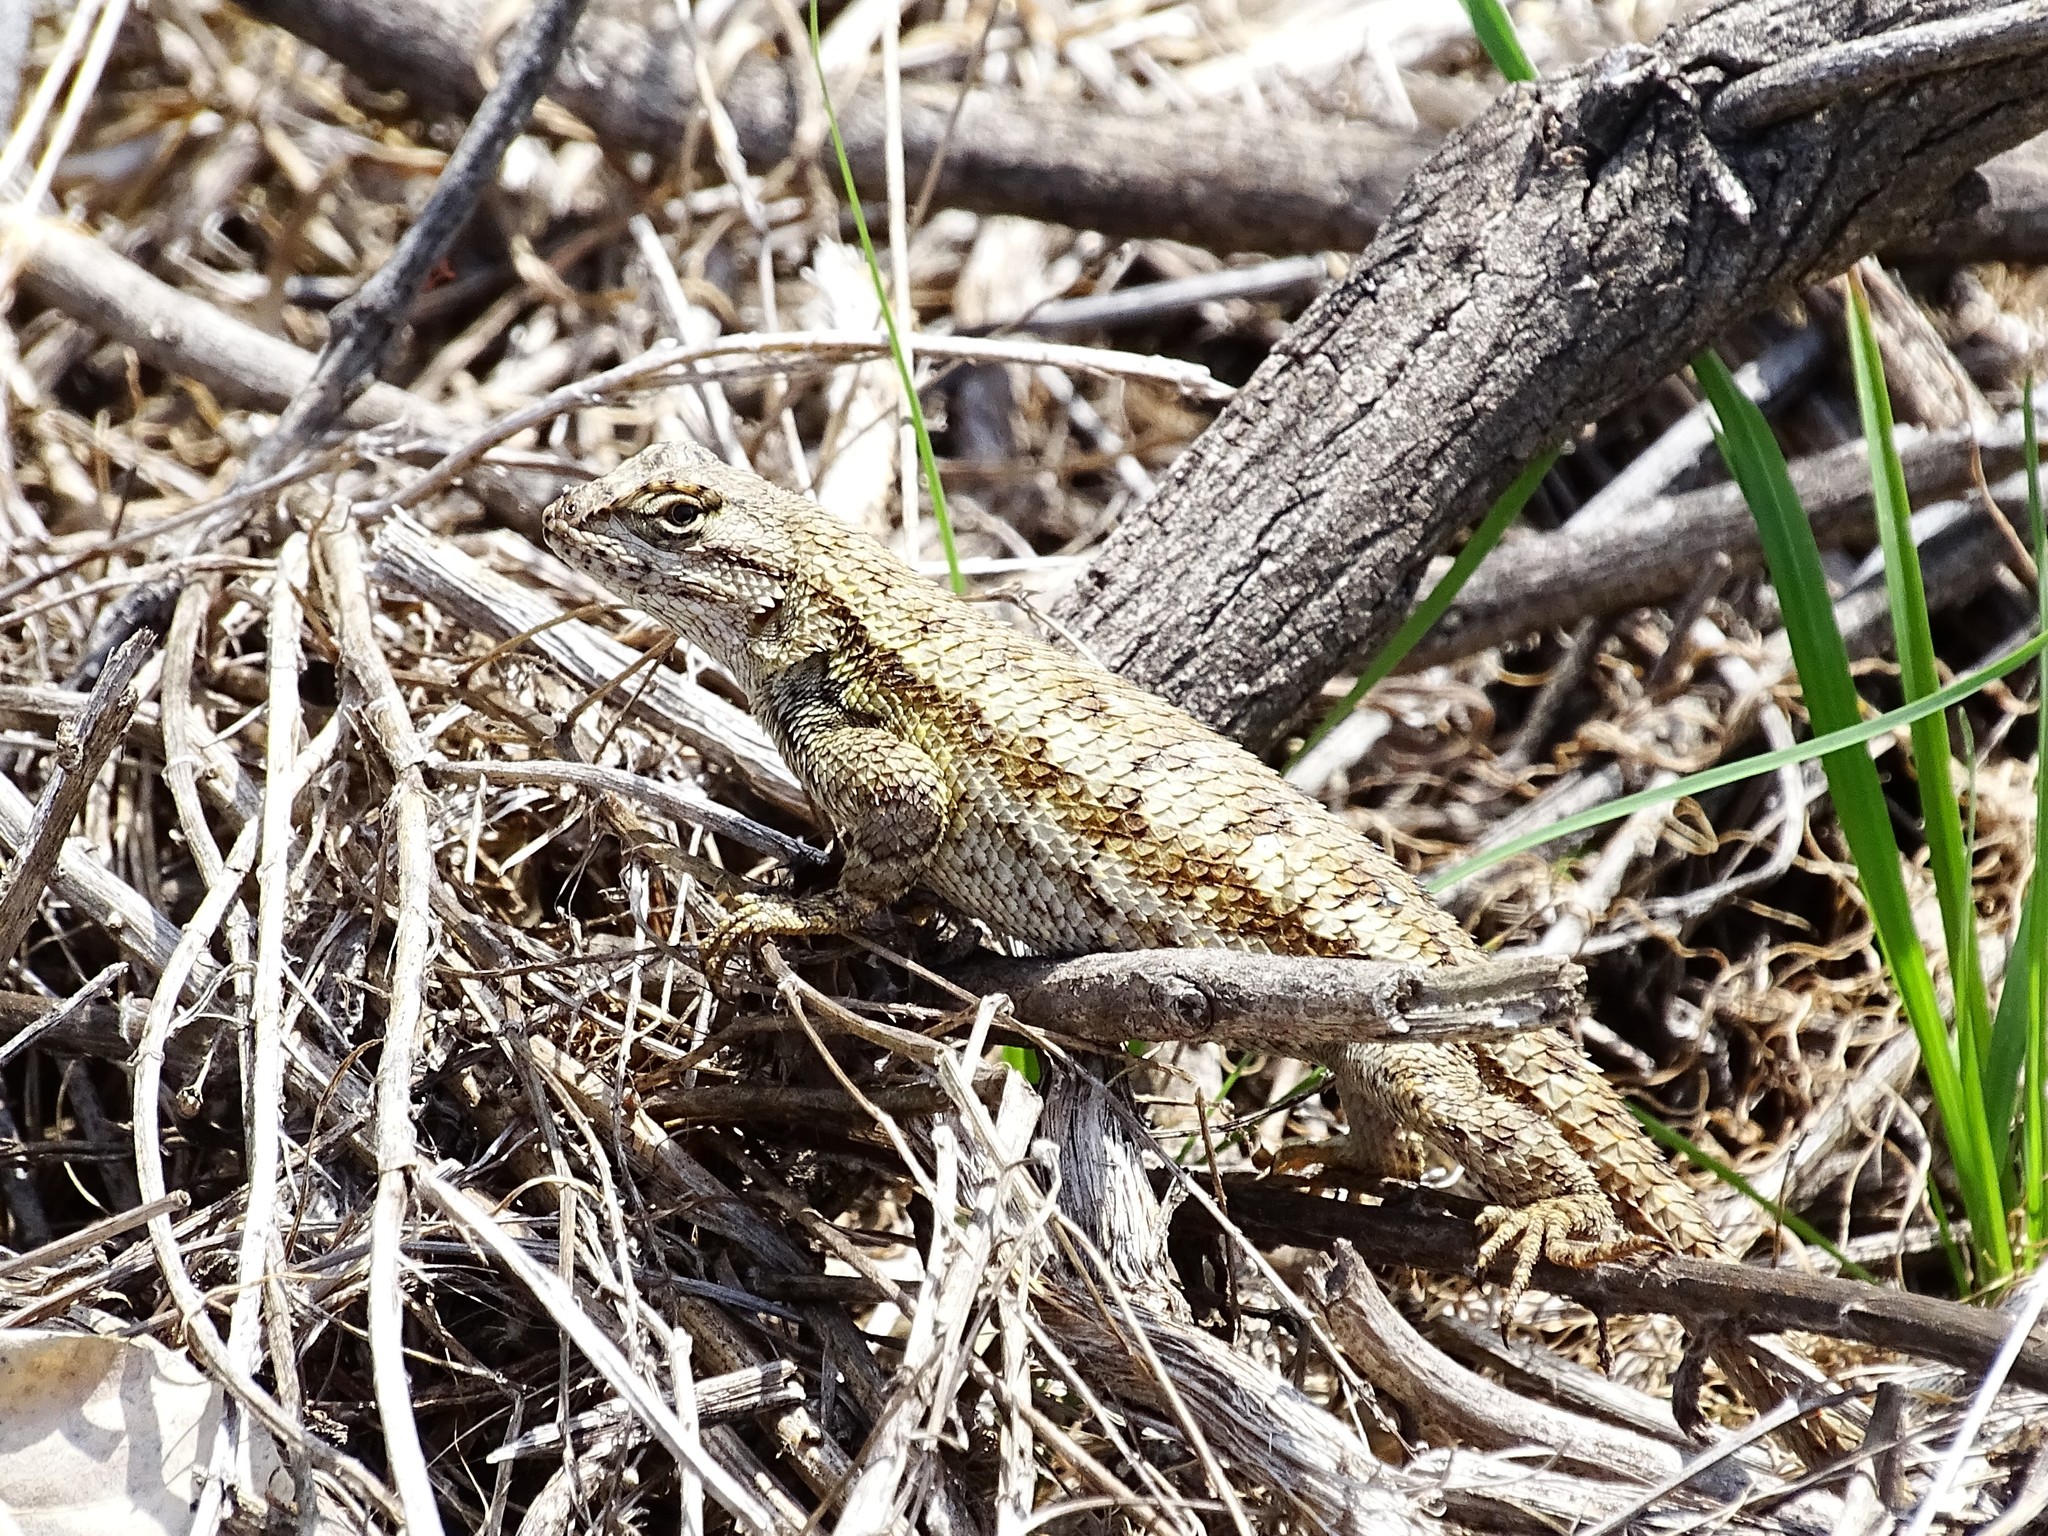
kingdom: Animalia
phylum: Chordata
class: Squamata
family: Phrynosomatidae
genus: Sceloporus
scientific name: Sceloporus occidentalis
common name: Western fence lizard
